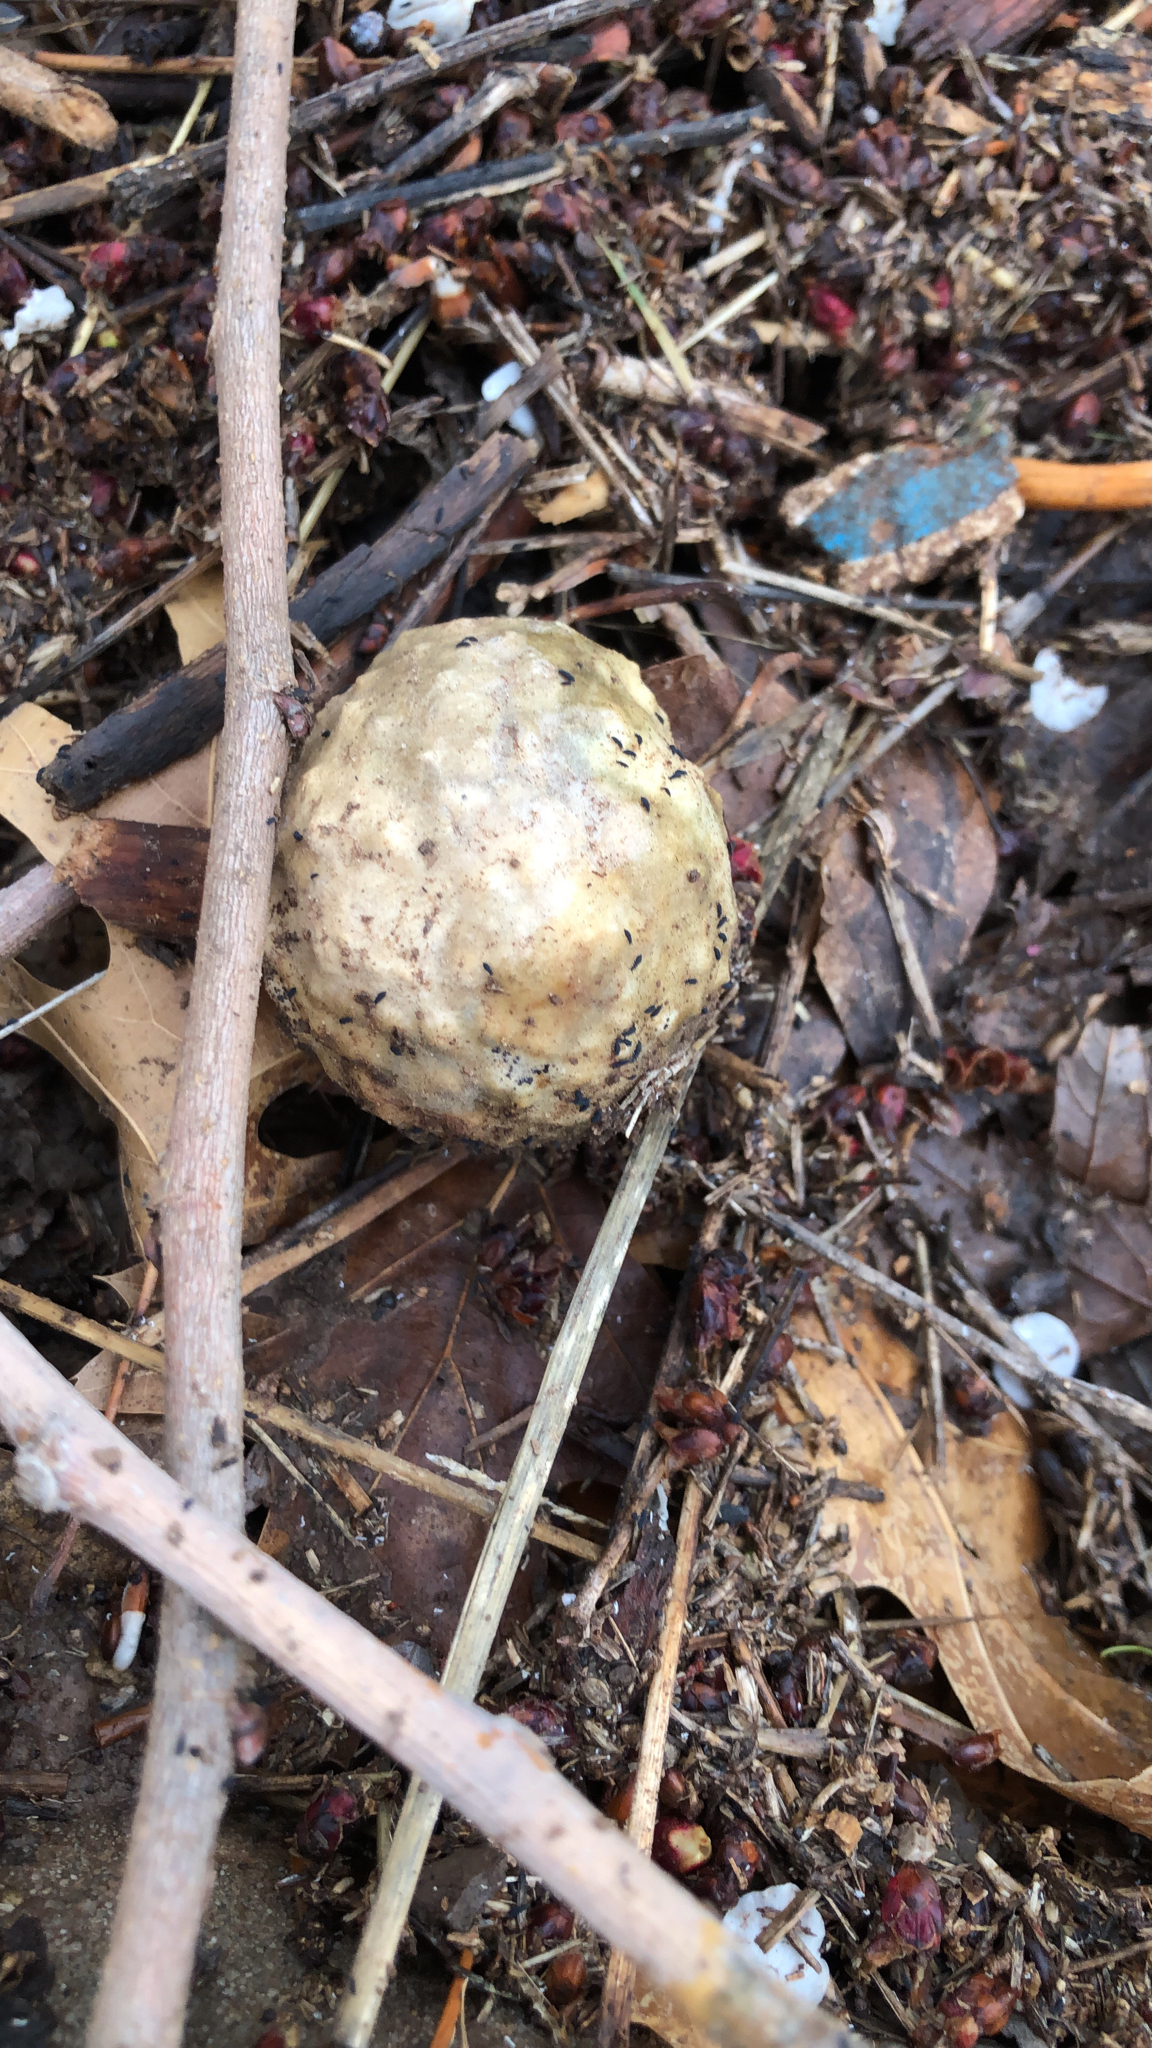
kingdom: Animalia
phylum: Arthropoda
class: Insecta
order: Hymenoptera
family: Cynipidae
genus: Amphibolips
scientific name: Amphibolips
